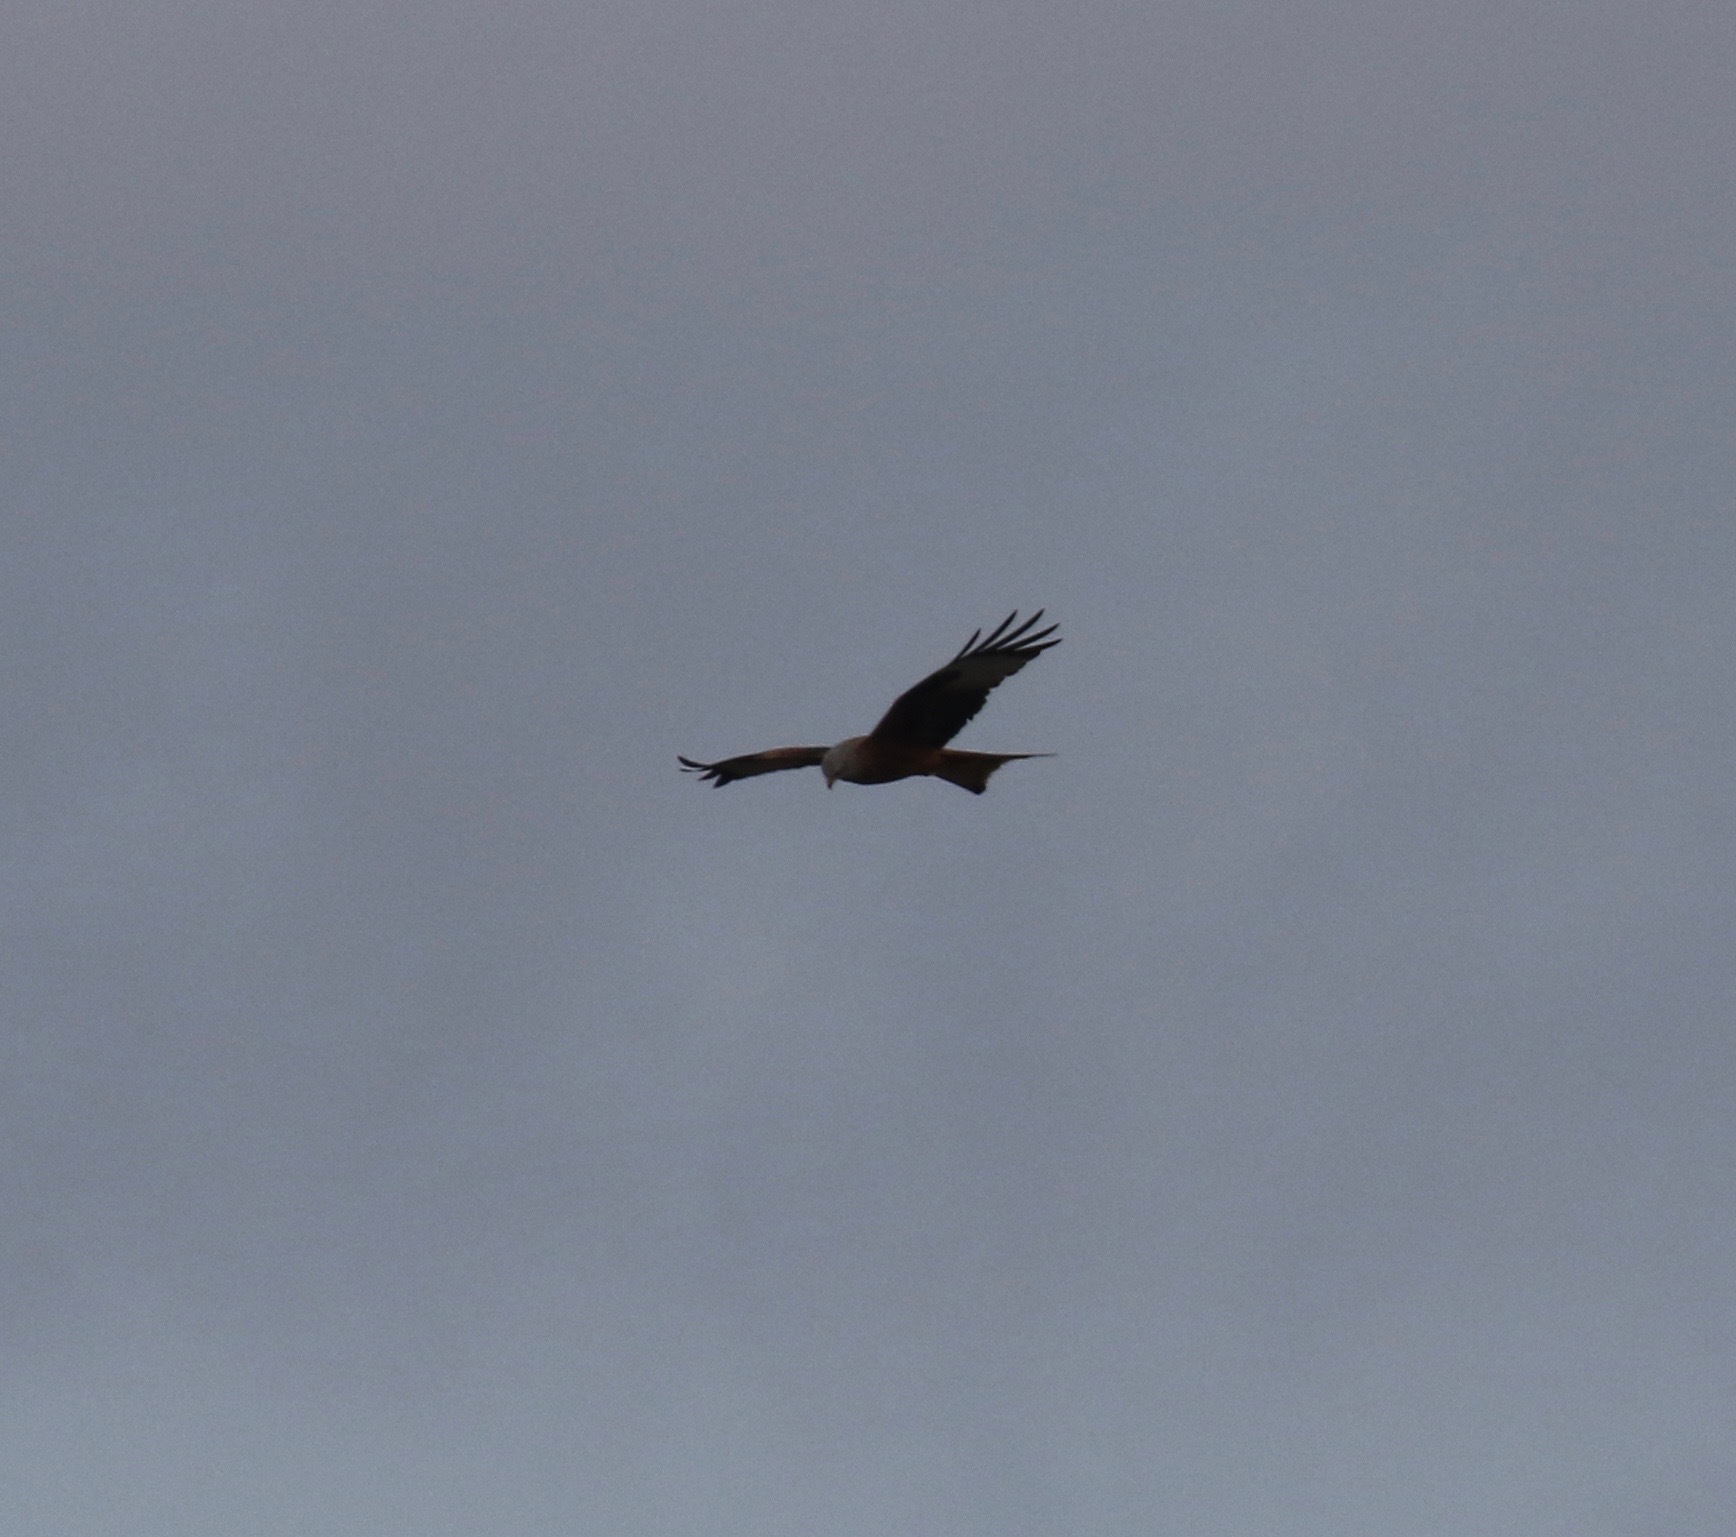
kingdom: Animalia
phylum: Chordata
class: Aves
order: Accipitriformes
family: Accipitridae
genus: Milvus
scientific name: Milvus milvus
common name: Red kite
